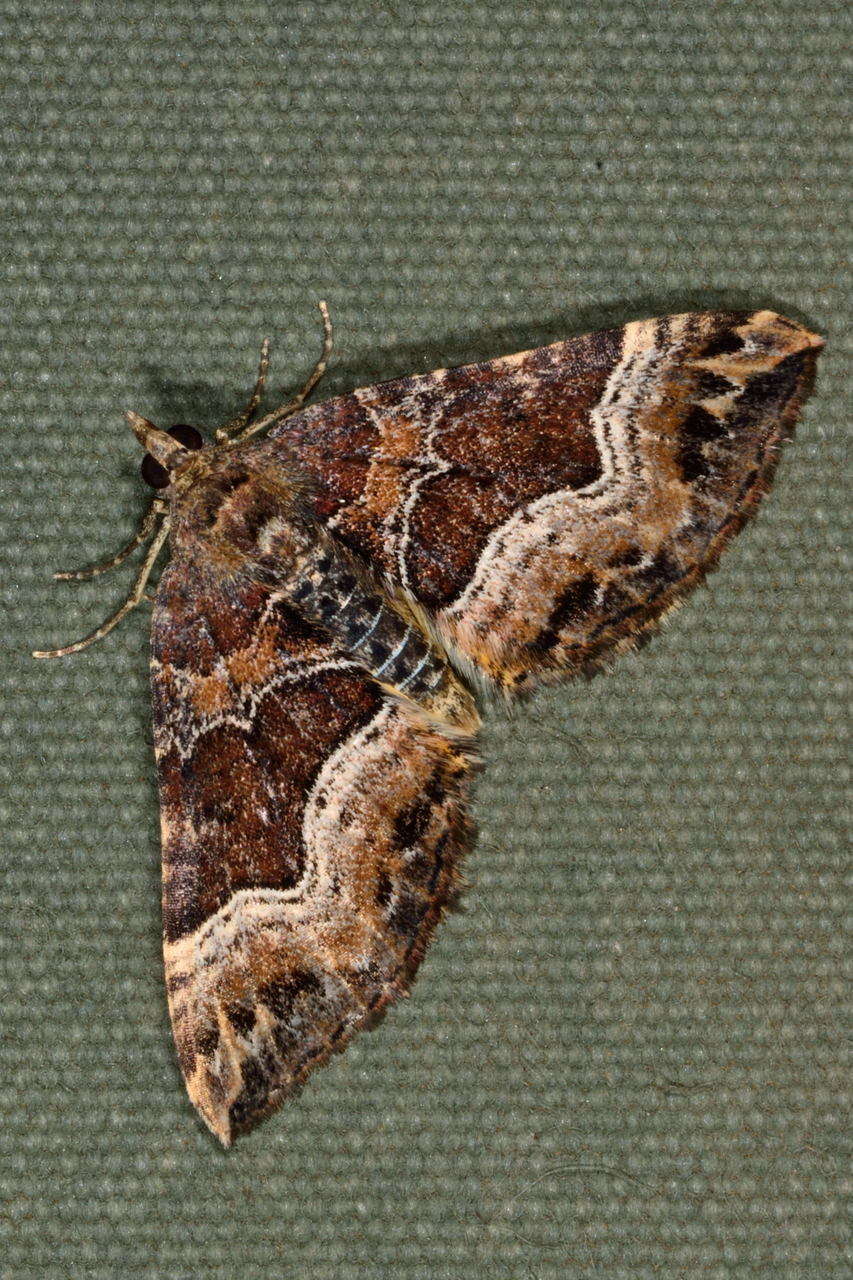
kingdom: Animalia
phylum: Arthropoda
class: Insecta
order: Lepidoptera
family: Geometridae
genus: Chrysolarentia
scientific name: Chrysolarentia lucidulata
